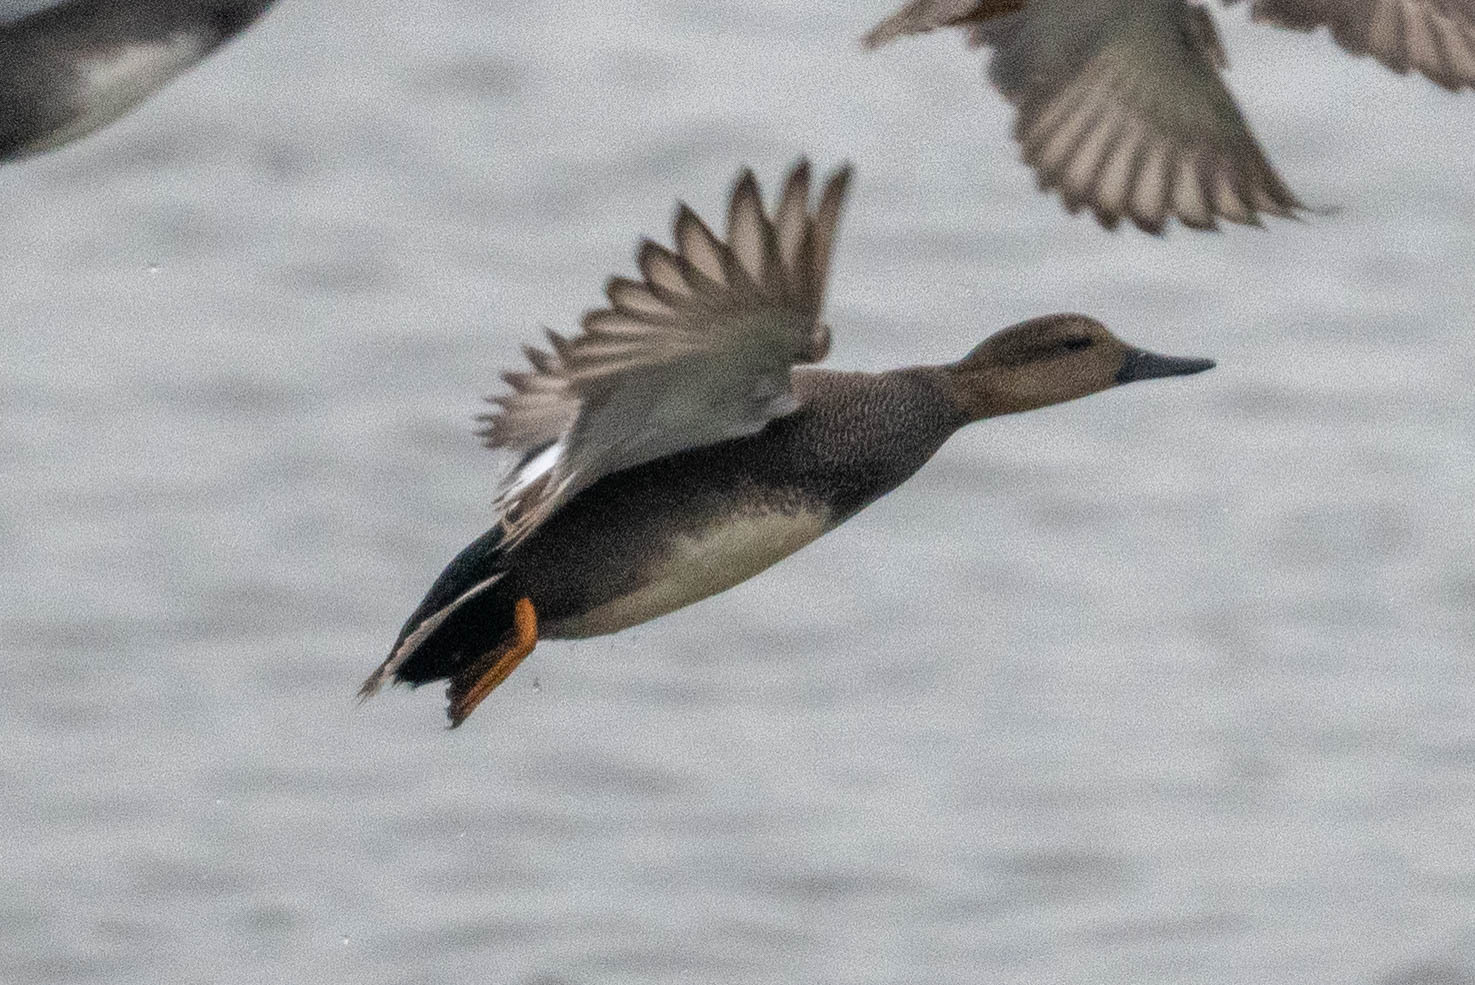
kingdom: Animalia
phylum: Chordata
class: Aves
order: Anseriformes
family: Anatidae
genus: Mareca
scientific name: Mareca strepera
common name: Gadwall
